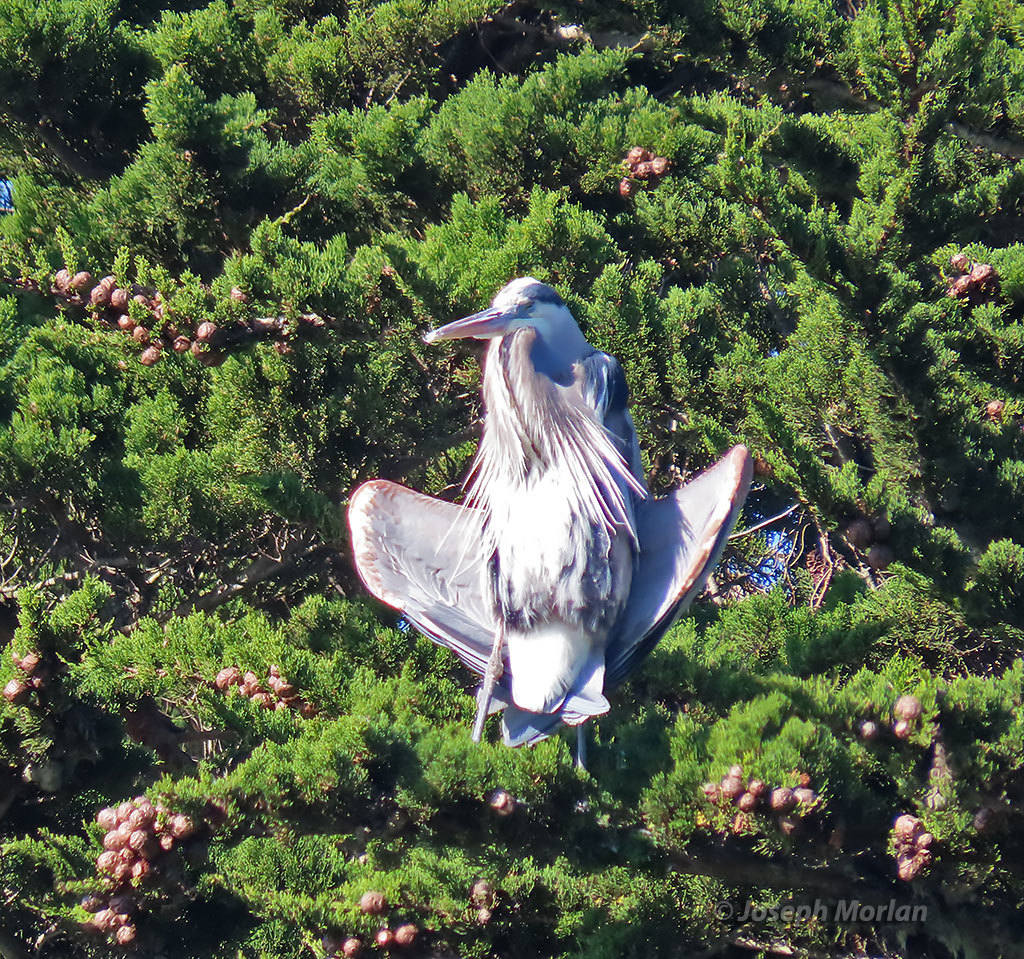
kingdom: Animalia
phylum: Chordata
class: Aves
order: Pelecaniformes
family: Ardeidae
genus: Ardea
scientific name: Ardea herodias
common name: Great blue heron
